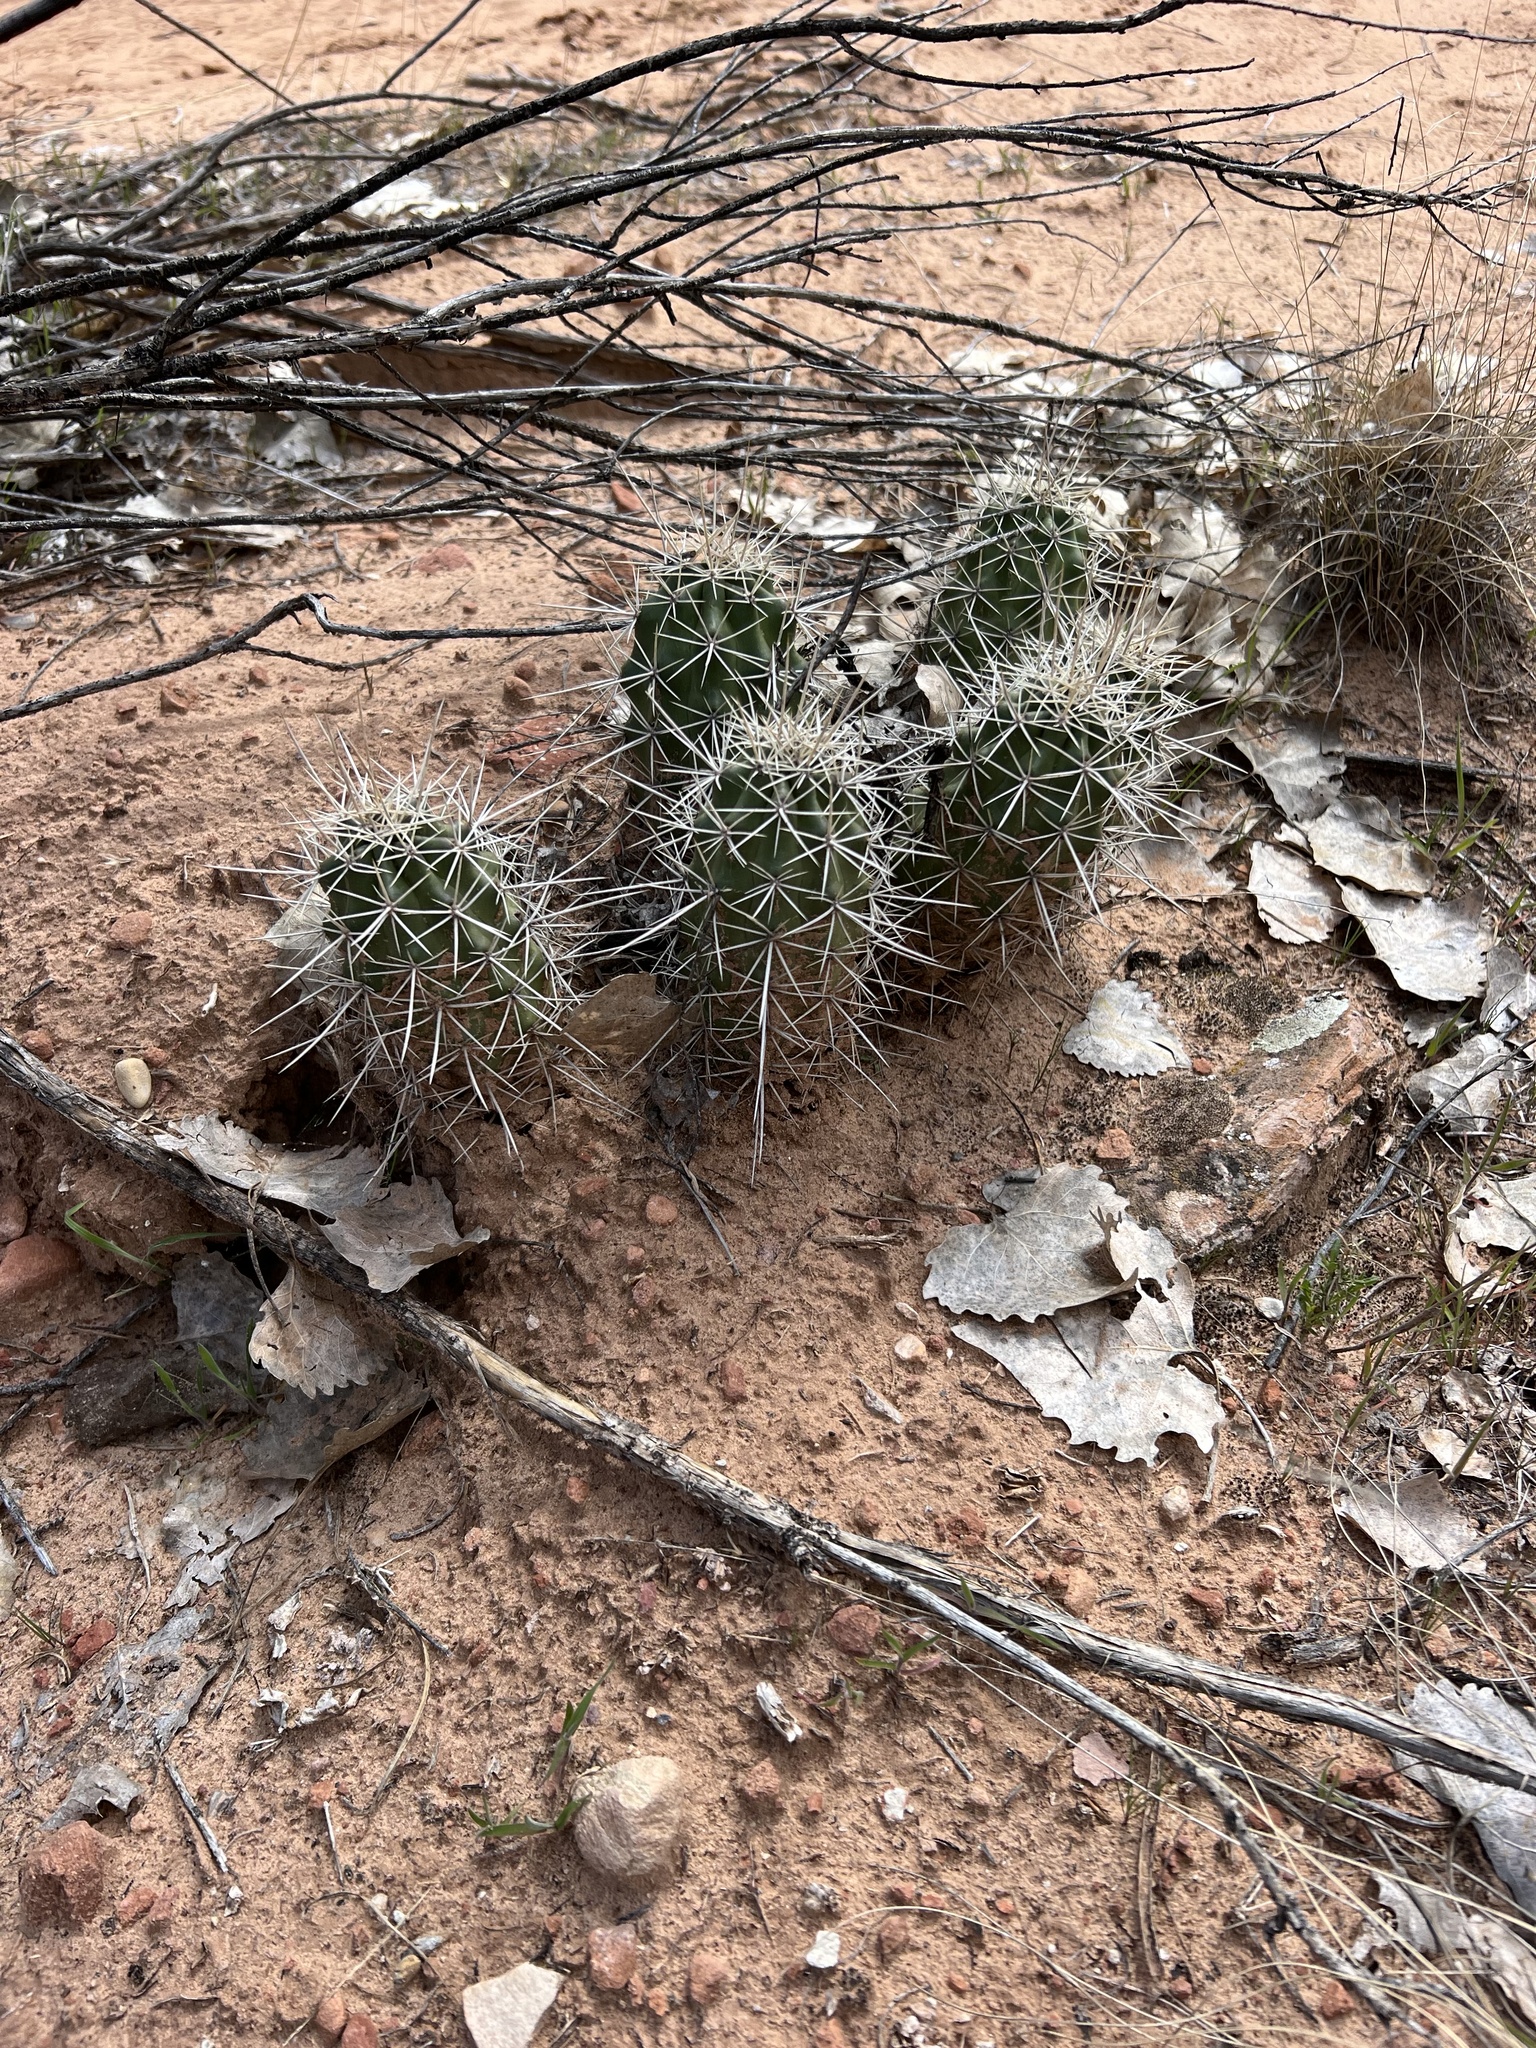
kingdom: Plantae
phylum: Tracheophyta
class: Magnoliopsida
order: Caryophyllales
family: Cactaceae
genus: Echinocereus
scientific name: Echinocereus triglochidiatus
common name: Claretcup hedgehog
